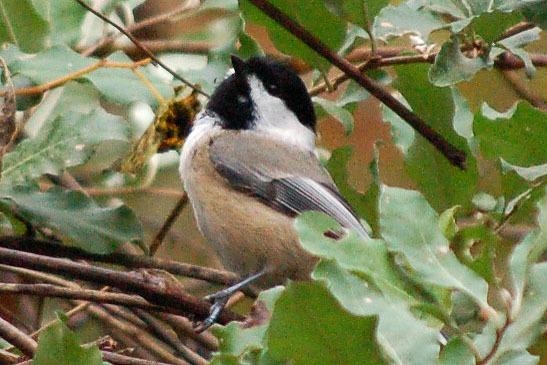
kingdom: Animalia
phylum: Chordata
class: Aves
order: Passeriformes
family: Paridae
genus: Poecile
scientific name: Poecile atricapillus
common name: Black-capped chickadee
